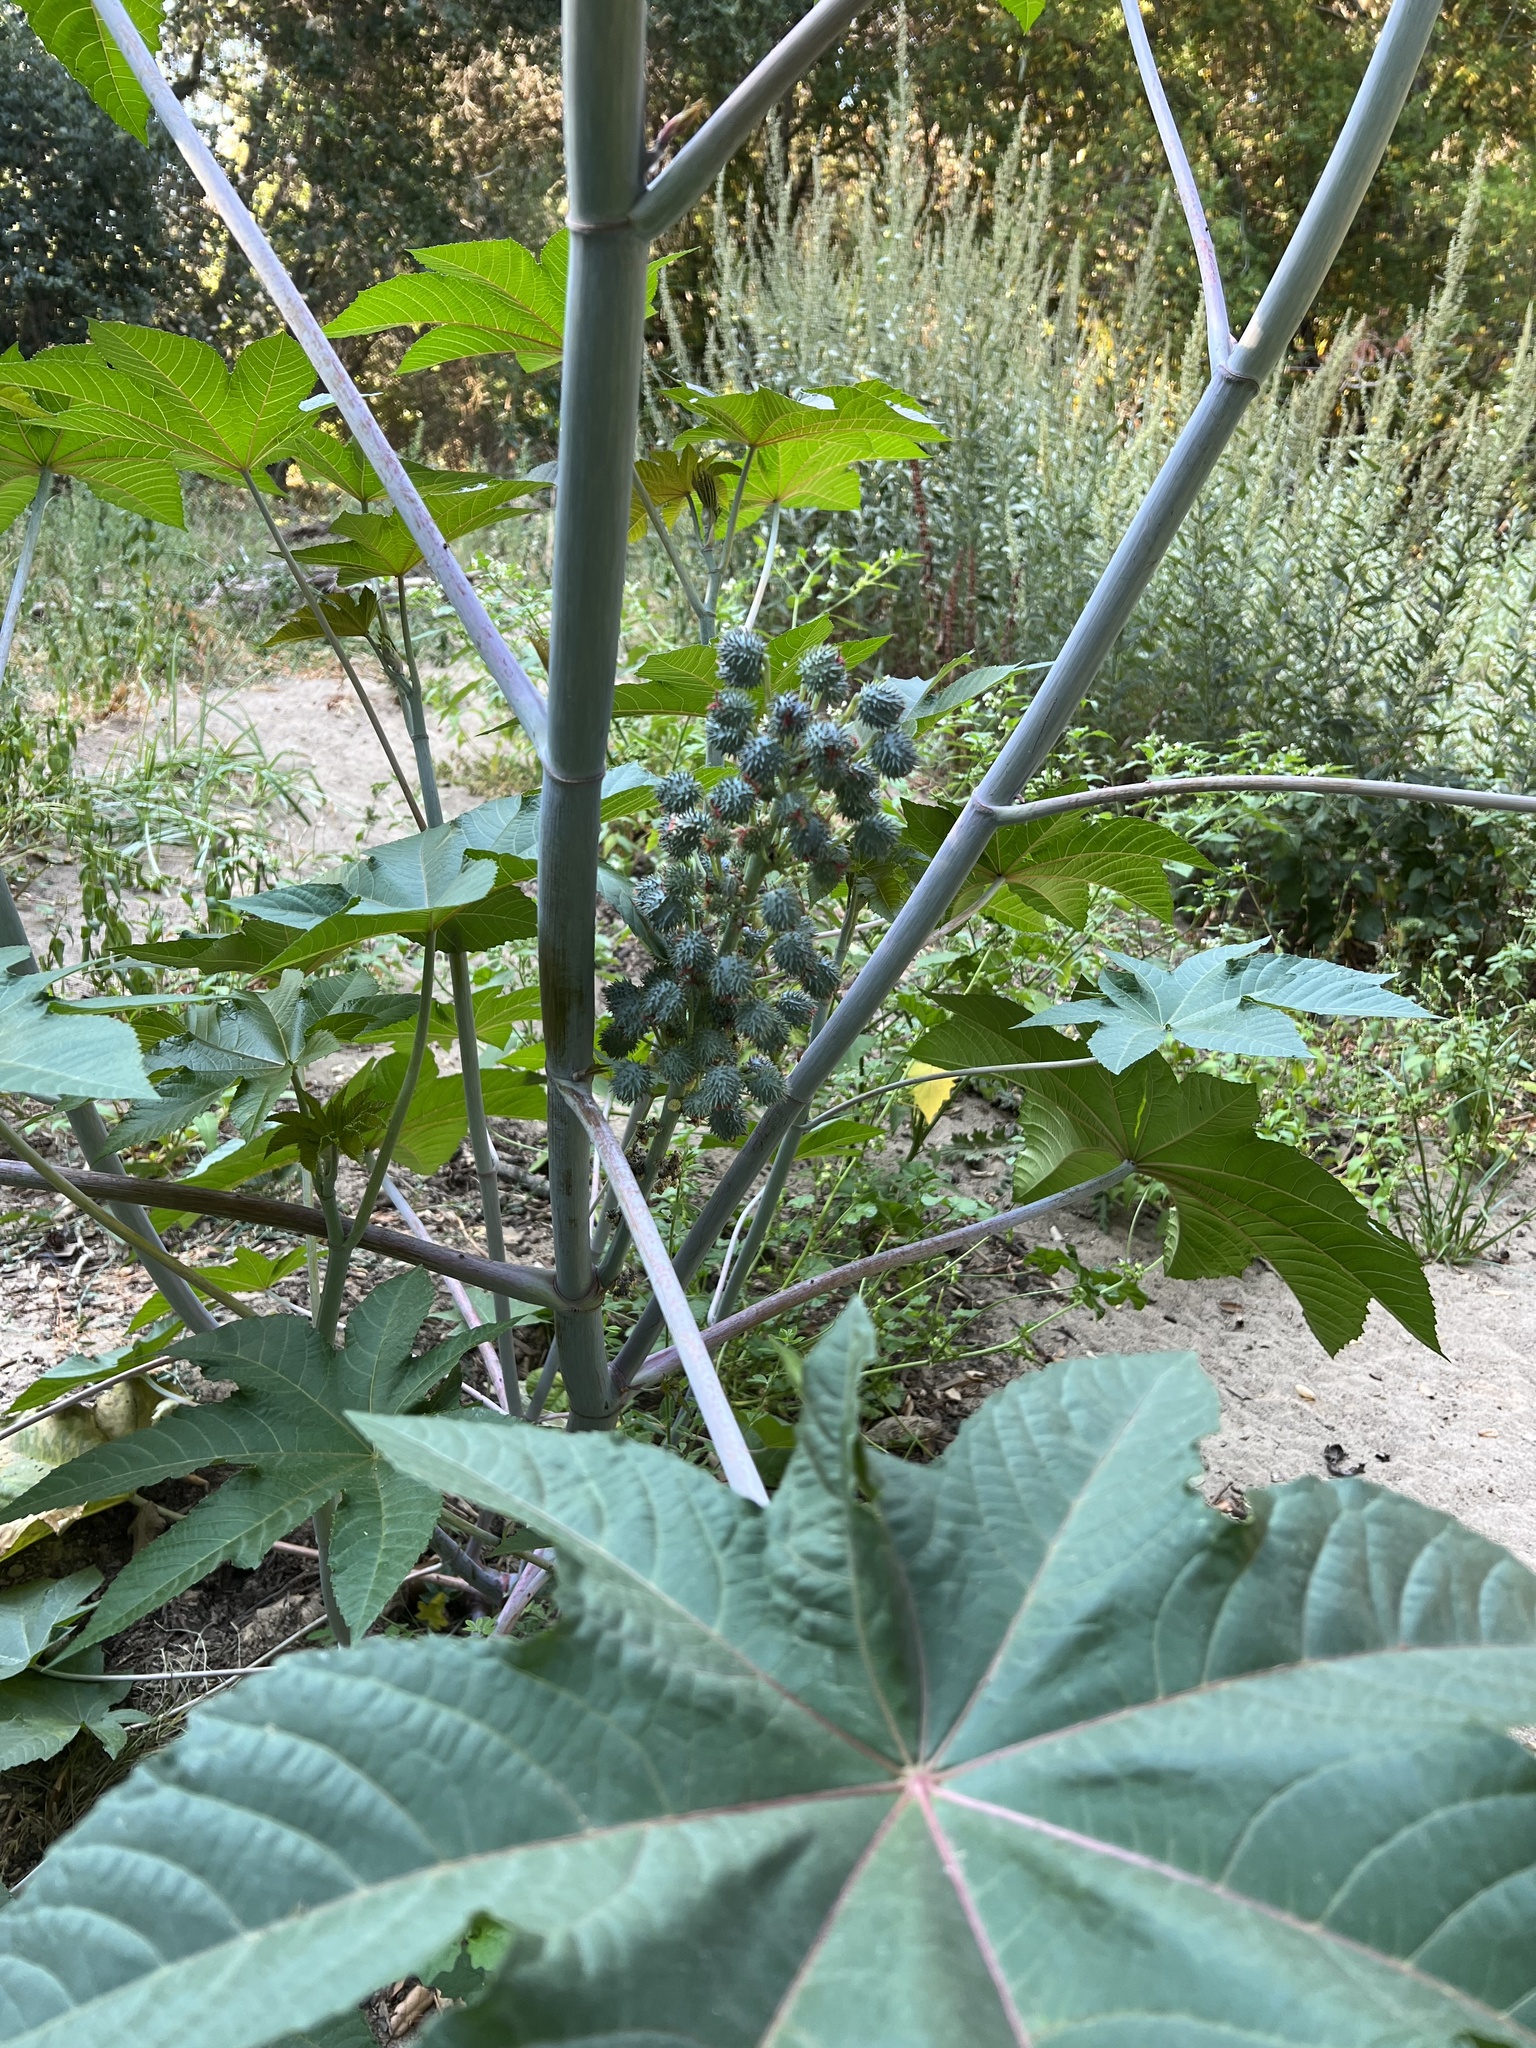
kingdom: Plantae
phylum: Tracheophyta
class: Magnoliopsida
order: Malpighiales
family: Euphorbiaceae
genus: Ricinus
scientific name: Ricinus communis
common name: Castor-oil-plant
